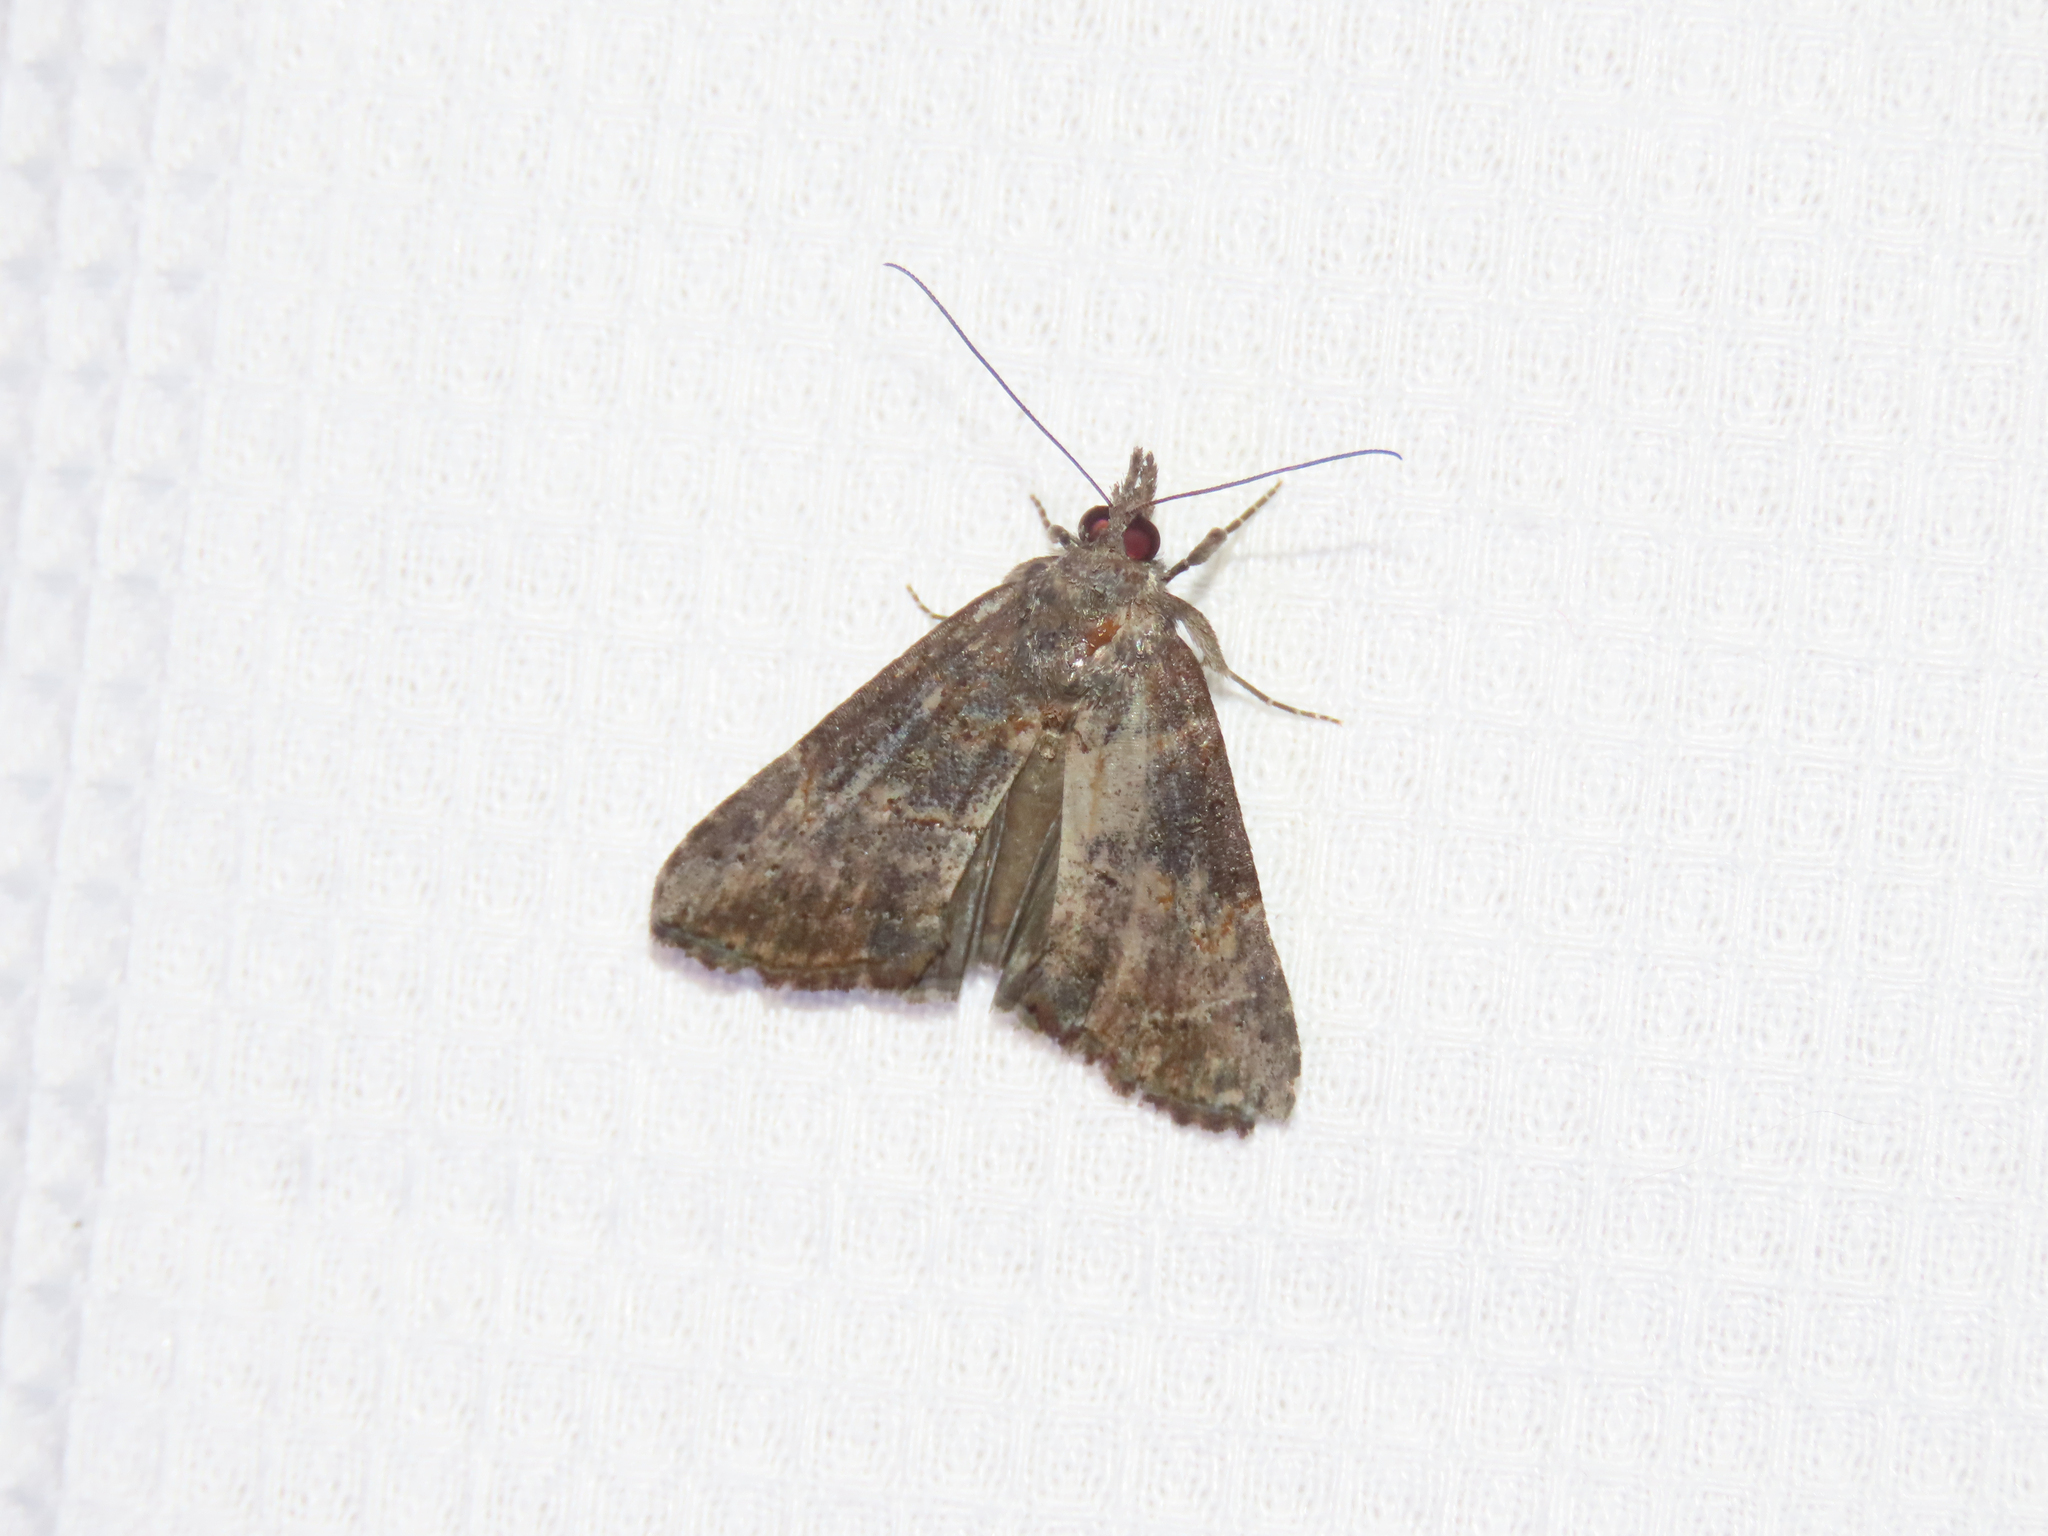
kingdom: Animalia
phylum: Arthropoda
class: Insecta
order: Lepidoptera
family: Erebidae
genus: Hypena
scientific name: Hypena scabra
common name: Green cloverworm
